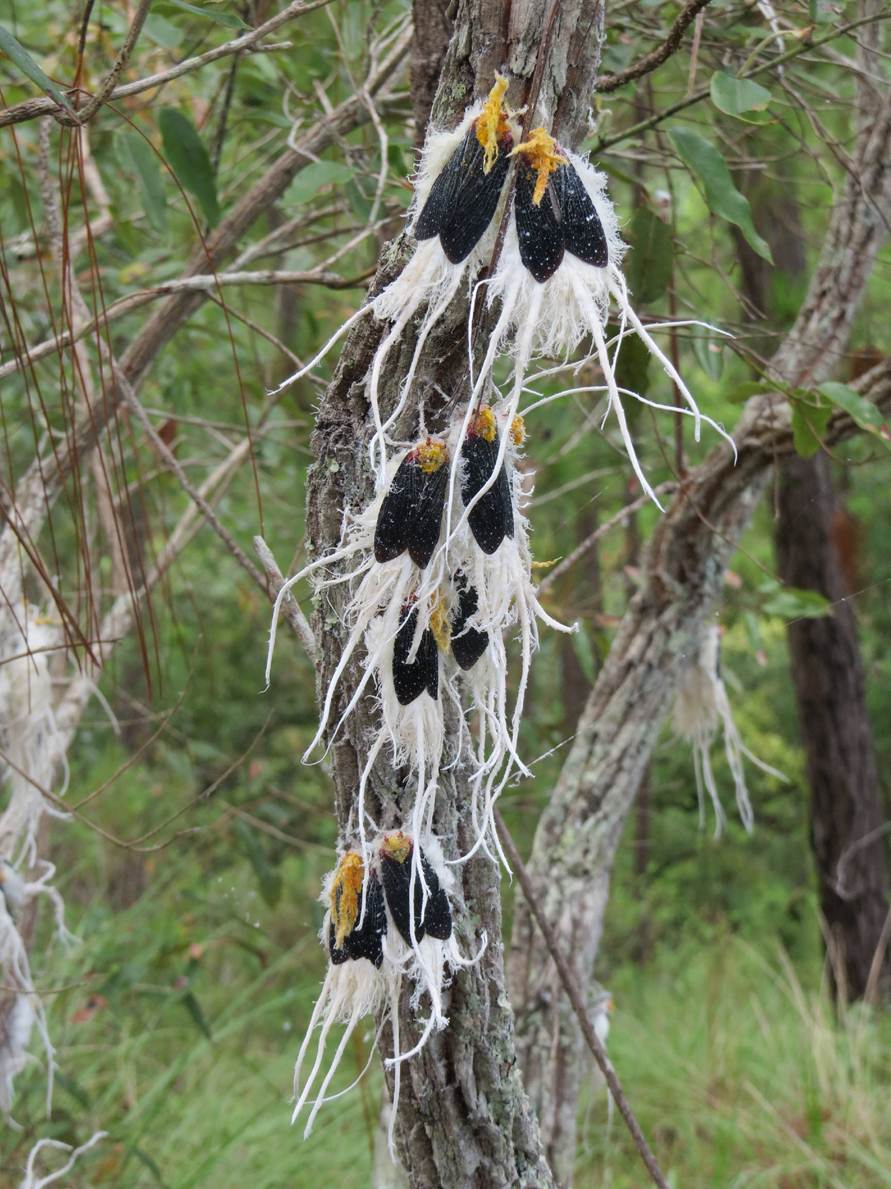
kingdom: Animalia
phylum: Arthropoda
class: Insecta
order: Hemiptera
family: Fulgoridae
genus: Cerogenes
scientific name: Cerogenes auricoma
